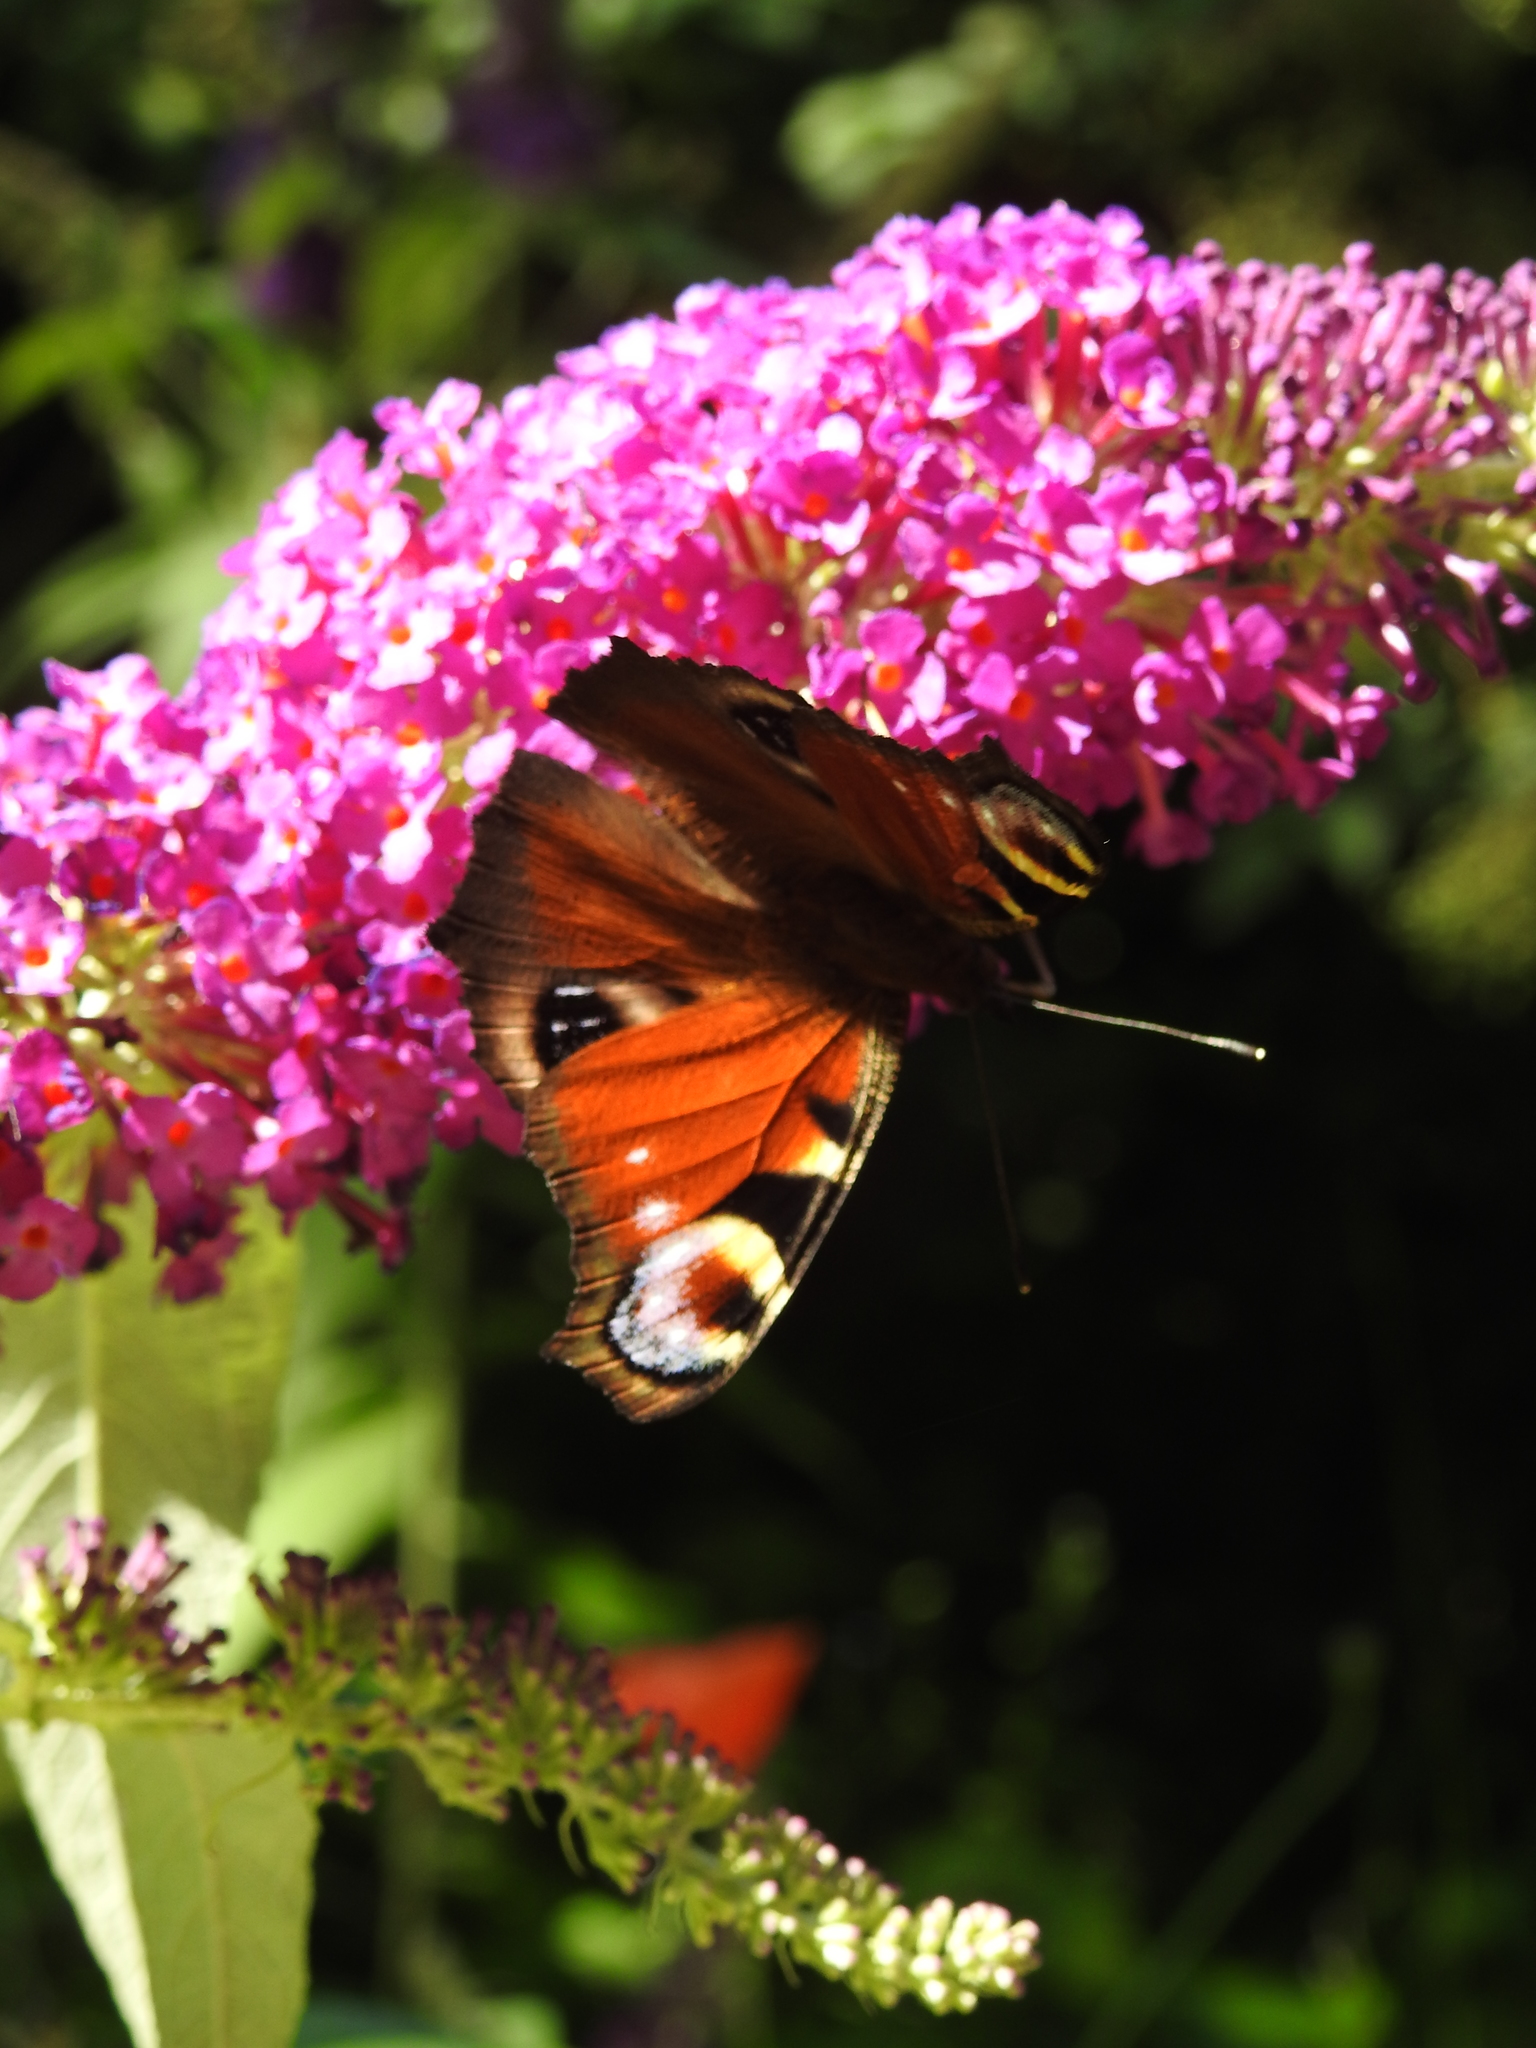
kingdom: Animalia
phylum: Arthropoda
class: Insecta
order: Lepidoptera
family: Nymphalidae
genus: Aglais
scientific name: Aglais io
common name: Peacock
